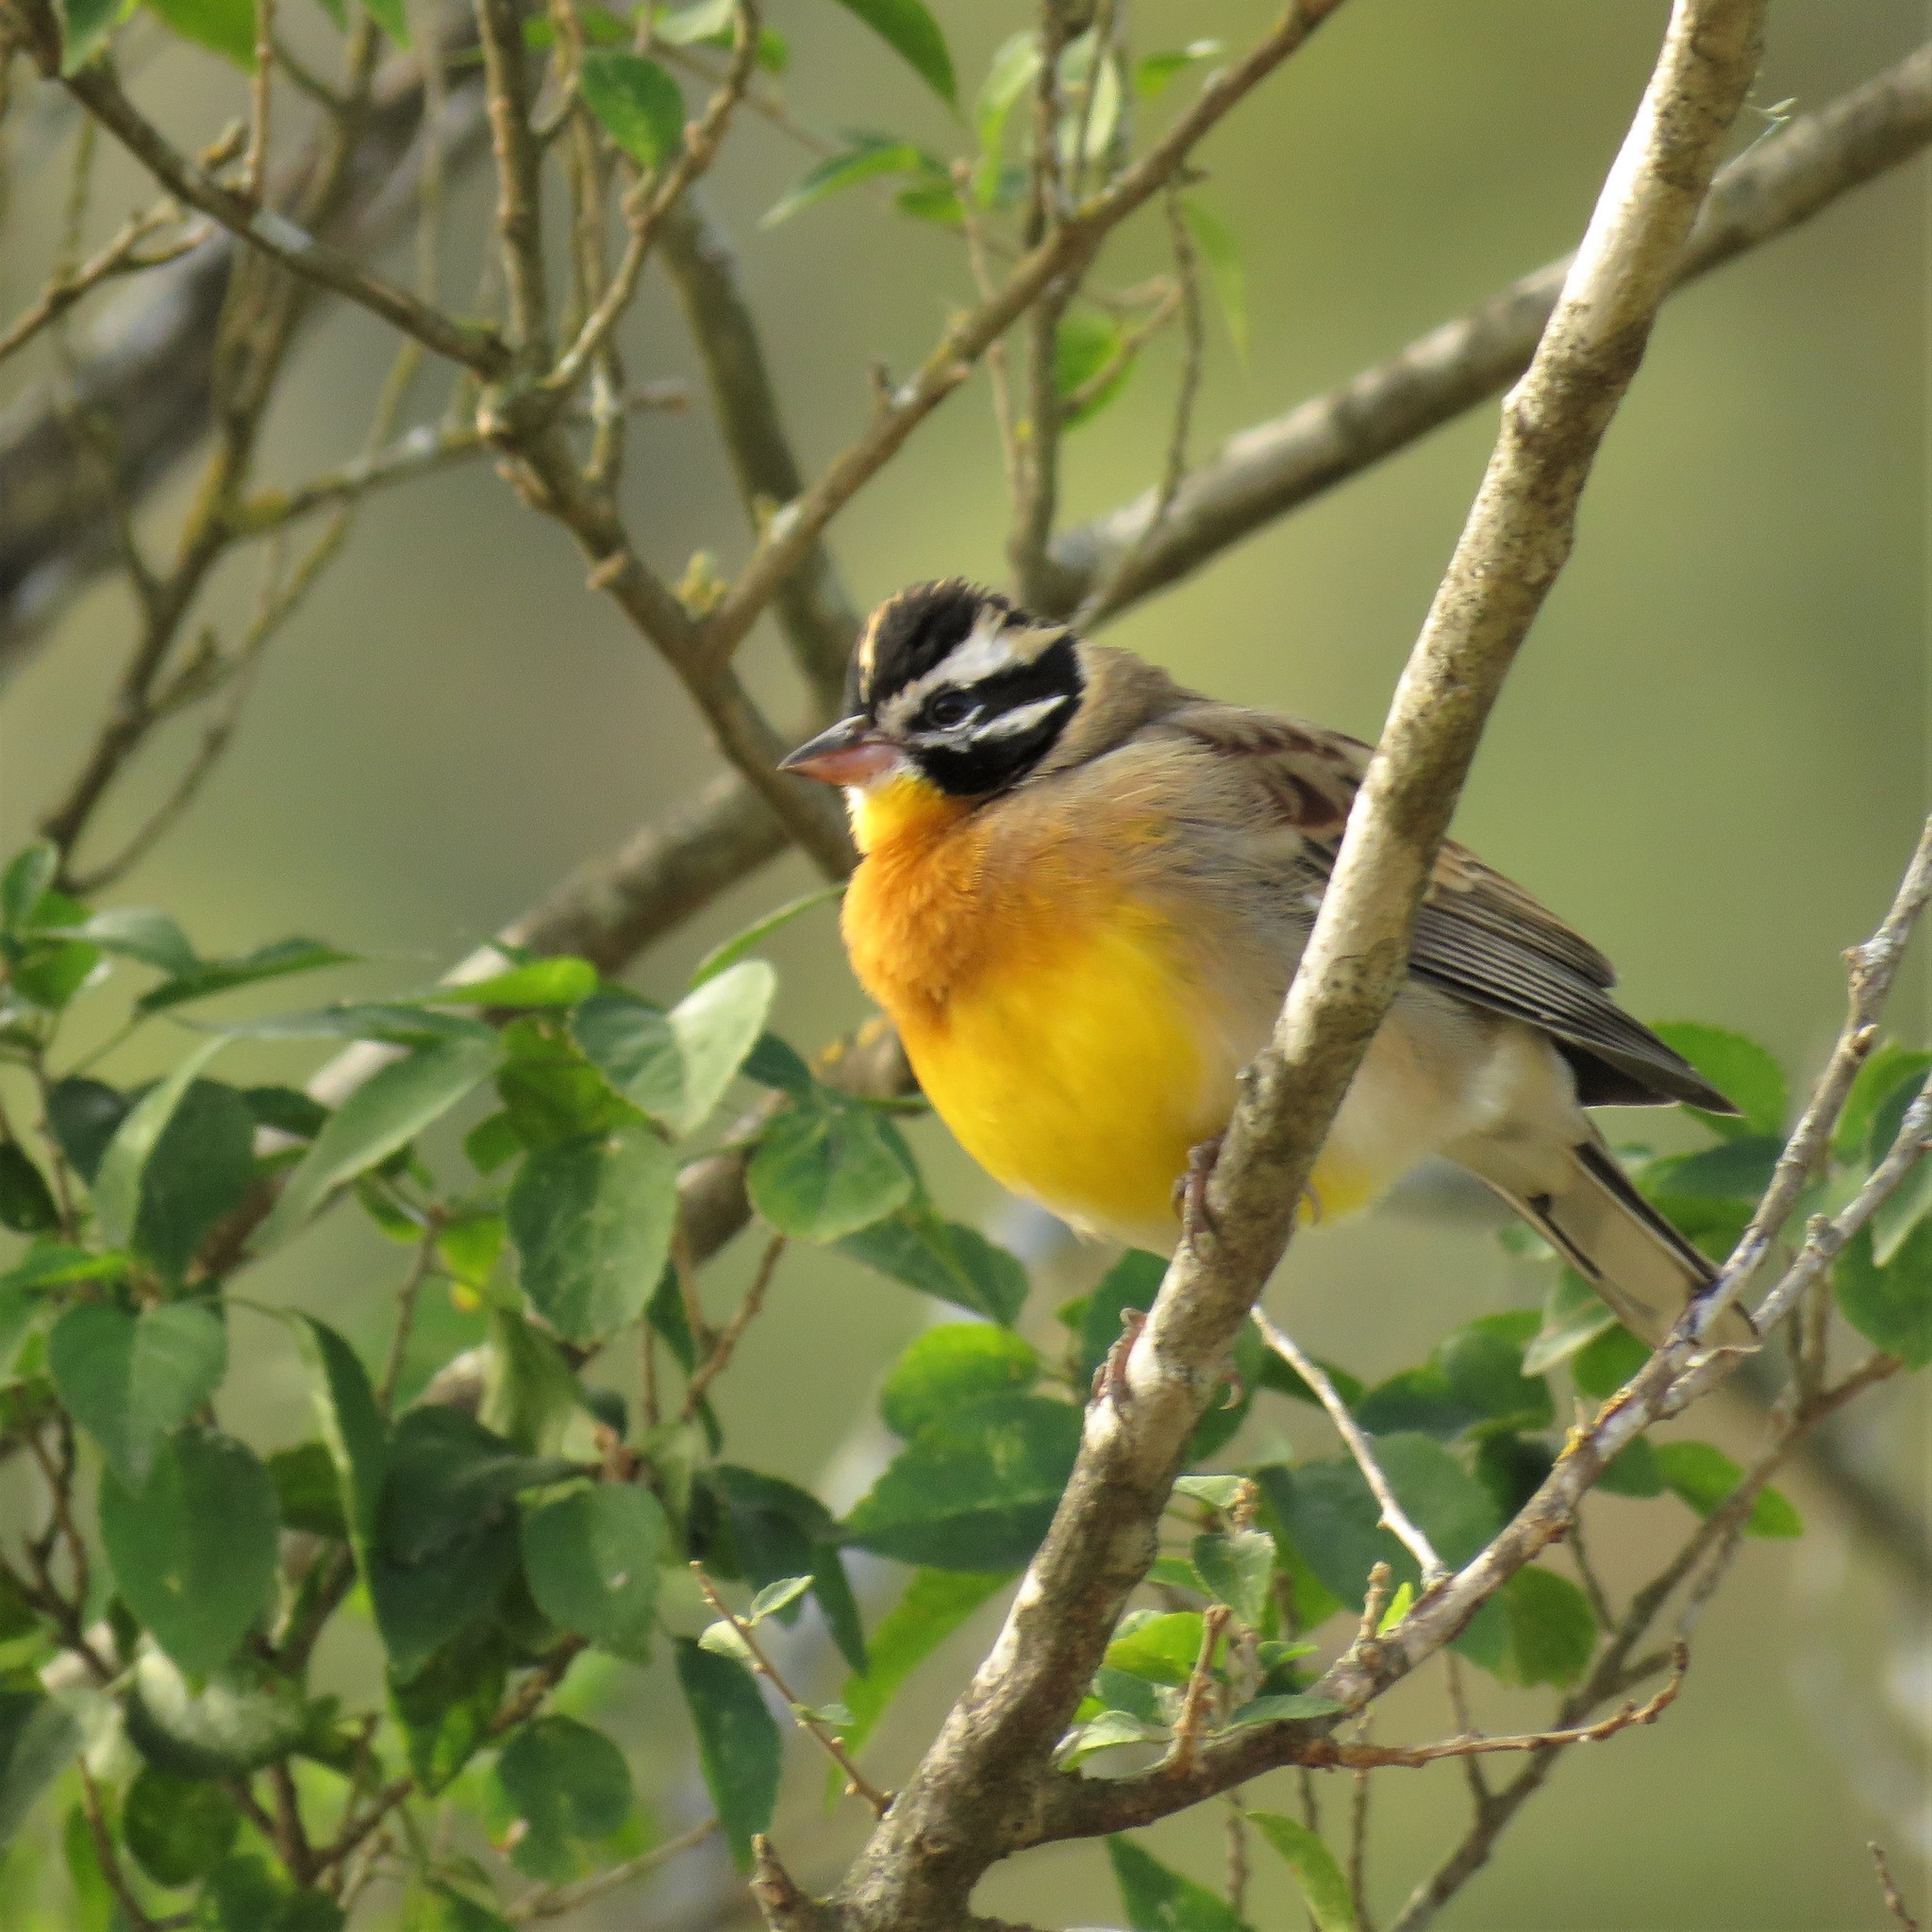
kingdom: Animalia
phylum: Chordata
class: Aves
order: Passeriformes
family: Emberizidae
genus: Emberiza
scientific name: Emberiza flaviventris
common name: Golden-breasted bunting
